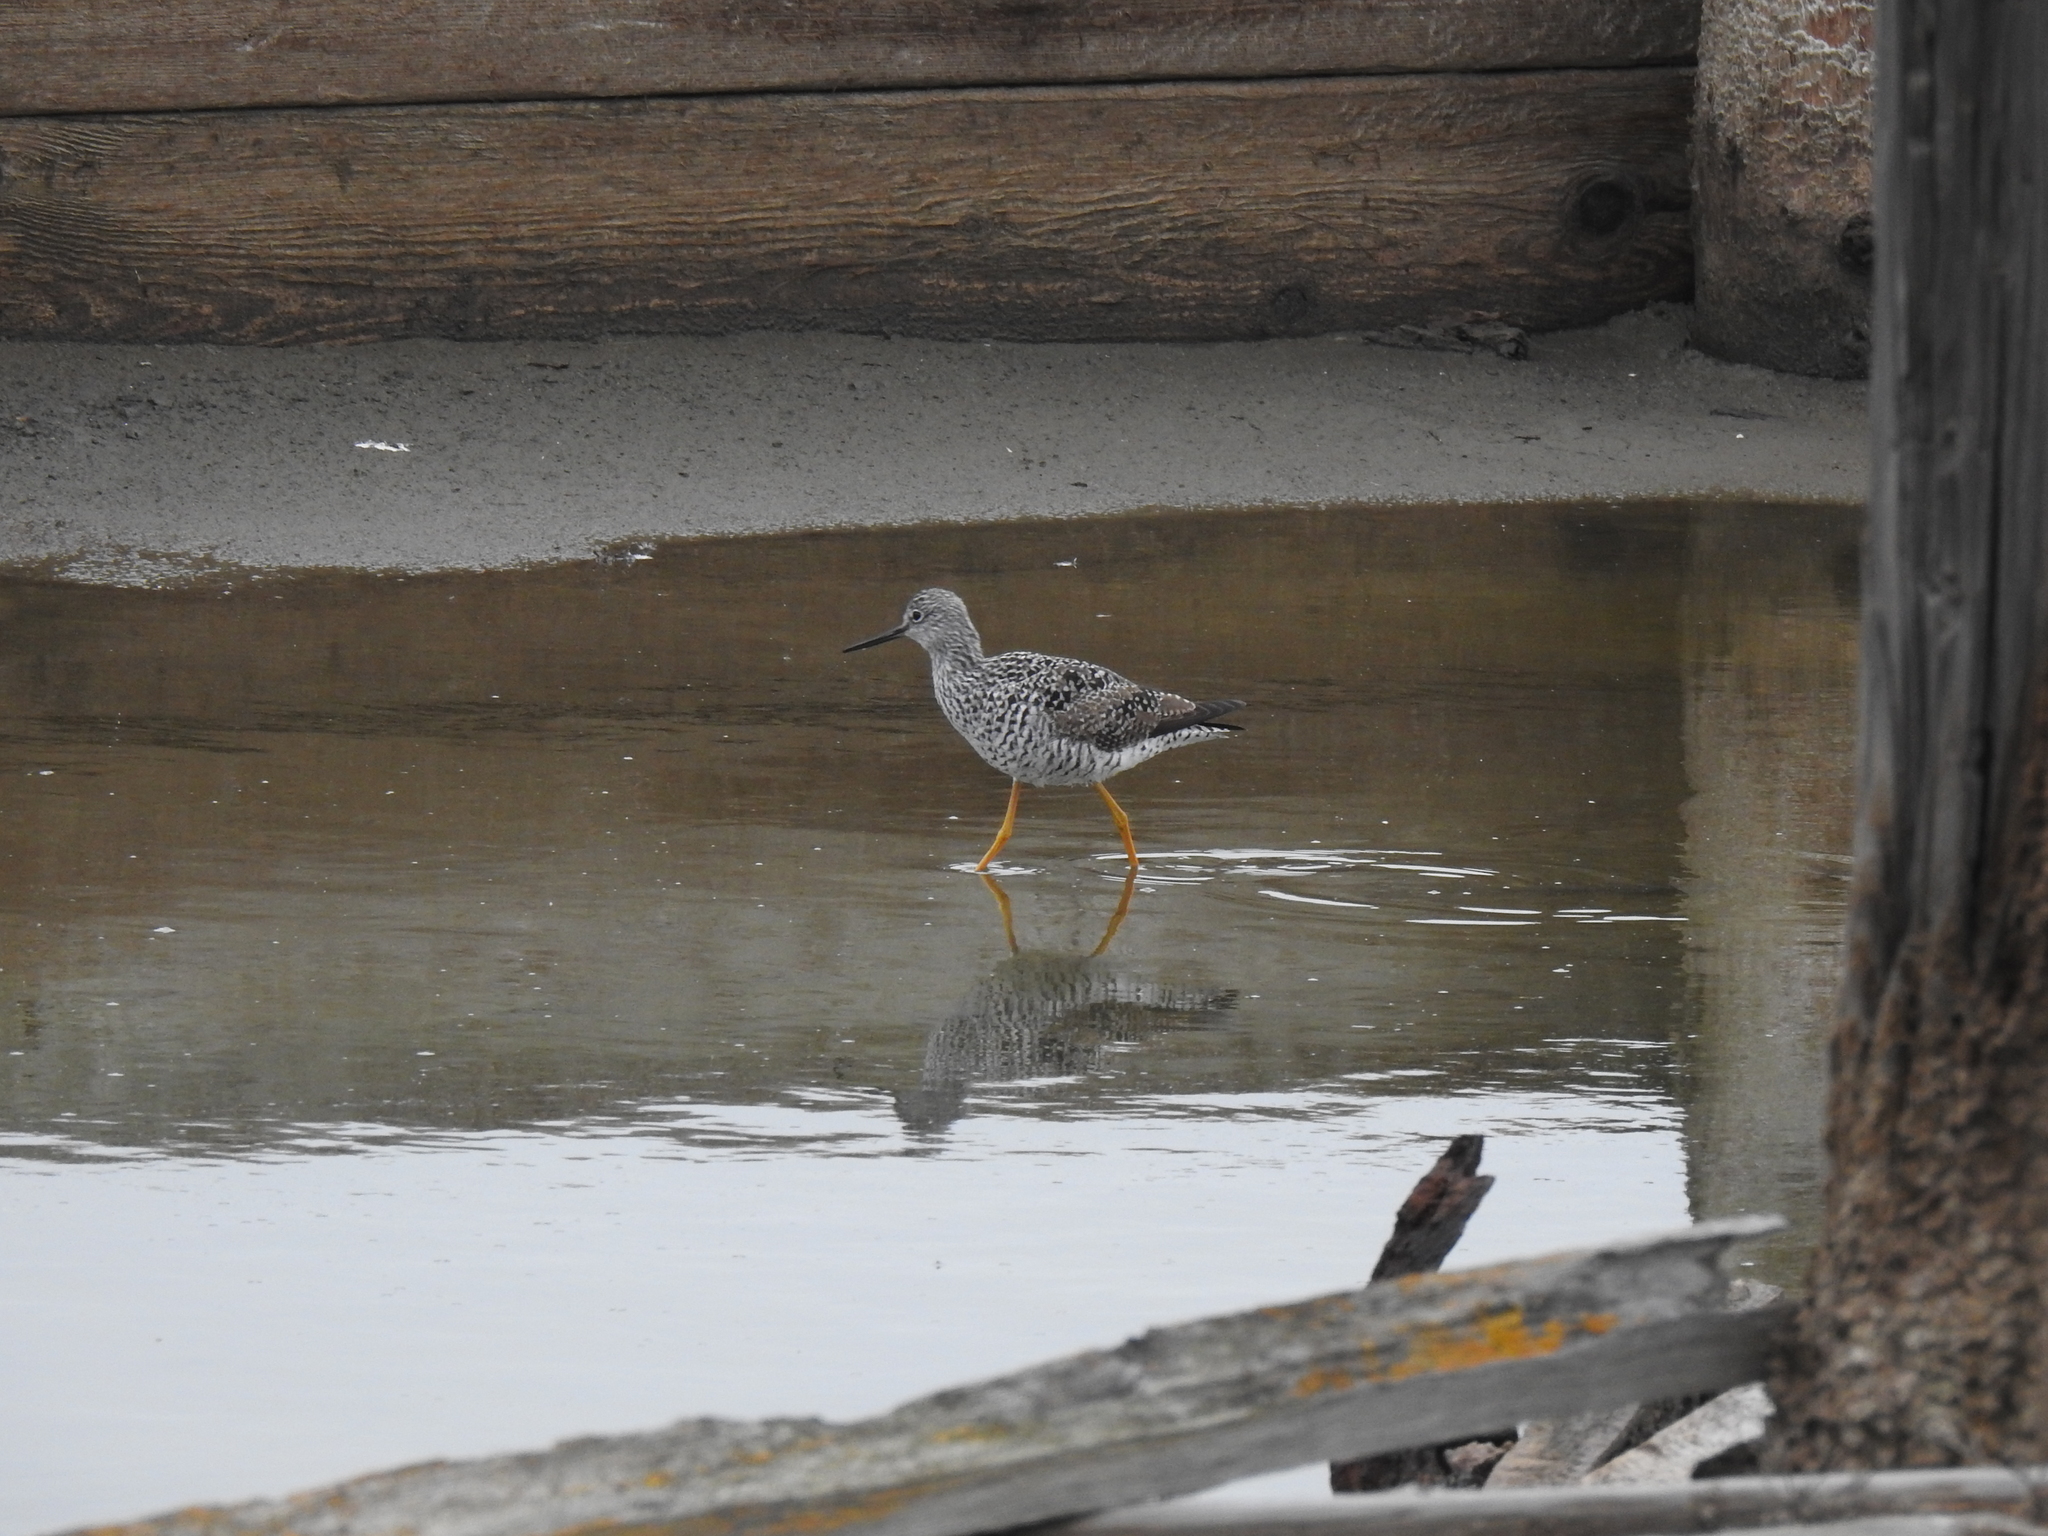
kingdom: Animalia
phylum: Chordata
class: Aves
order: Charadriiformes
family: Scolopacidae
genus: Tringa
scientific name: Tringa melanoleuca
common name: Greater yellowlegs
